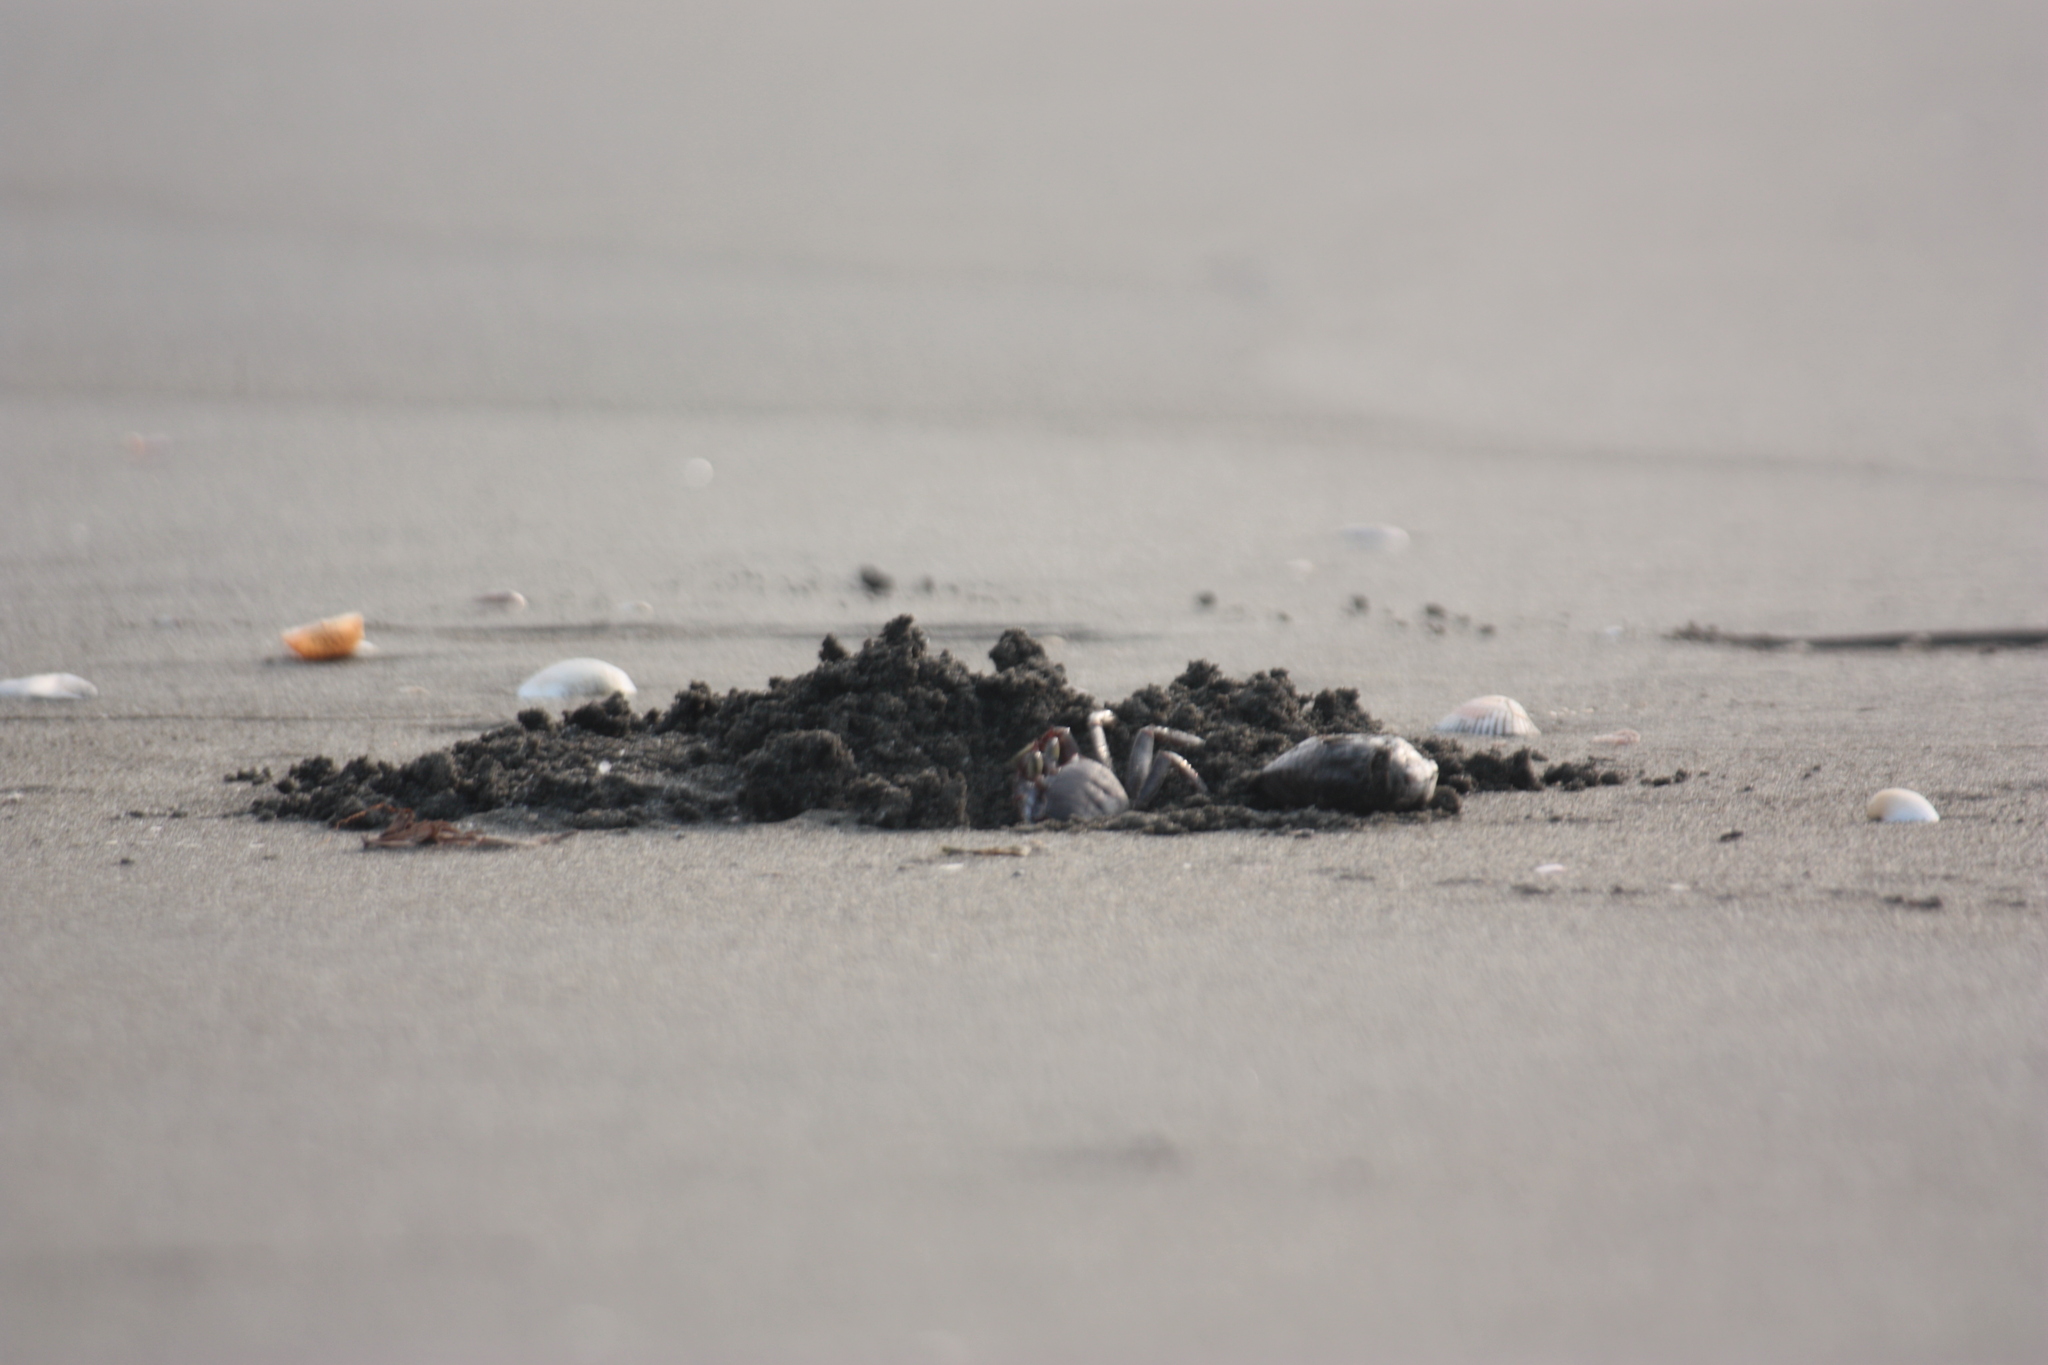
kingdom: Animalia
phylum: Arthropoda
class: Malacostraca
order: Decapoda
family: Ocypodidae
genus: Ocypode
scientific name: Ocypode ceratophthalmus
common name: Indo-pacific ghost crab
